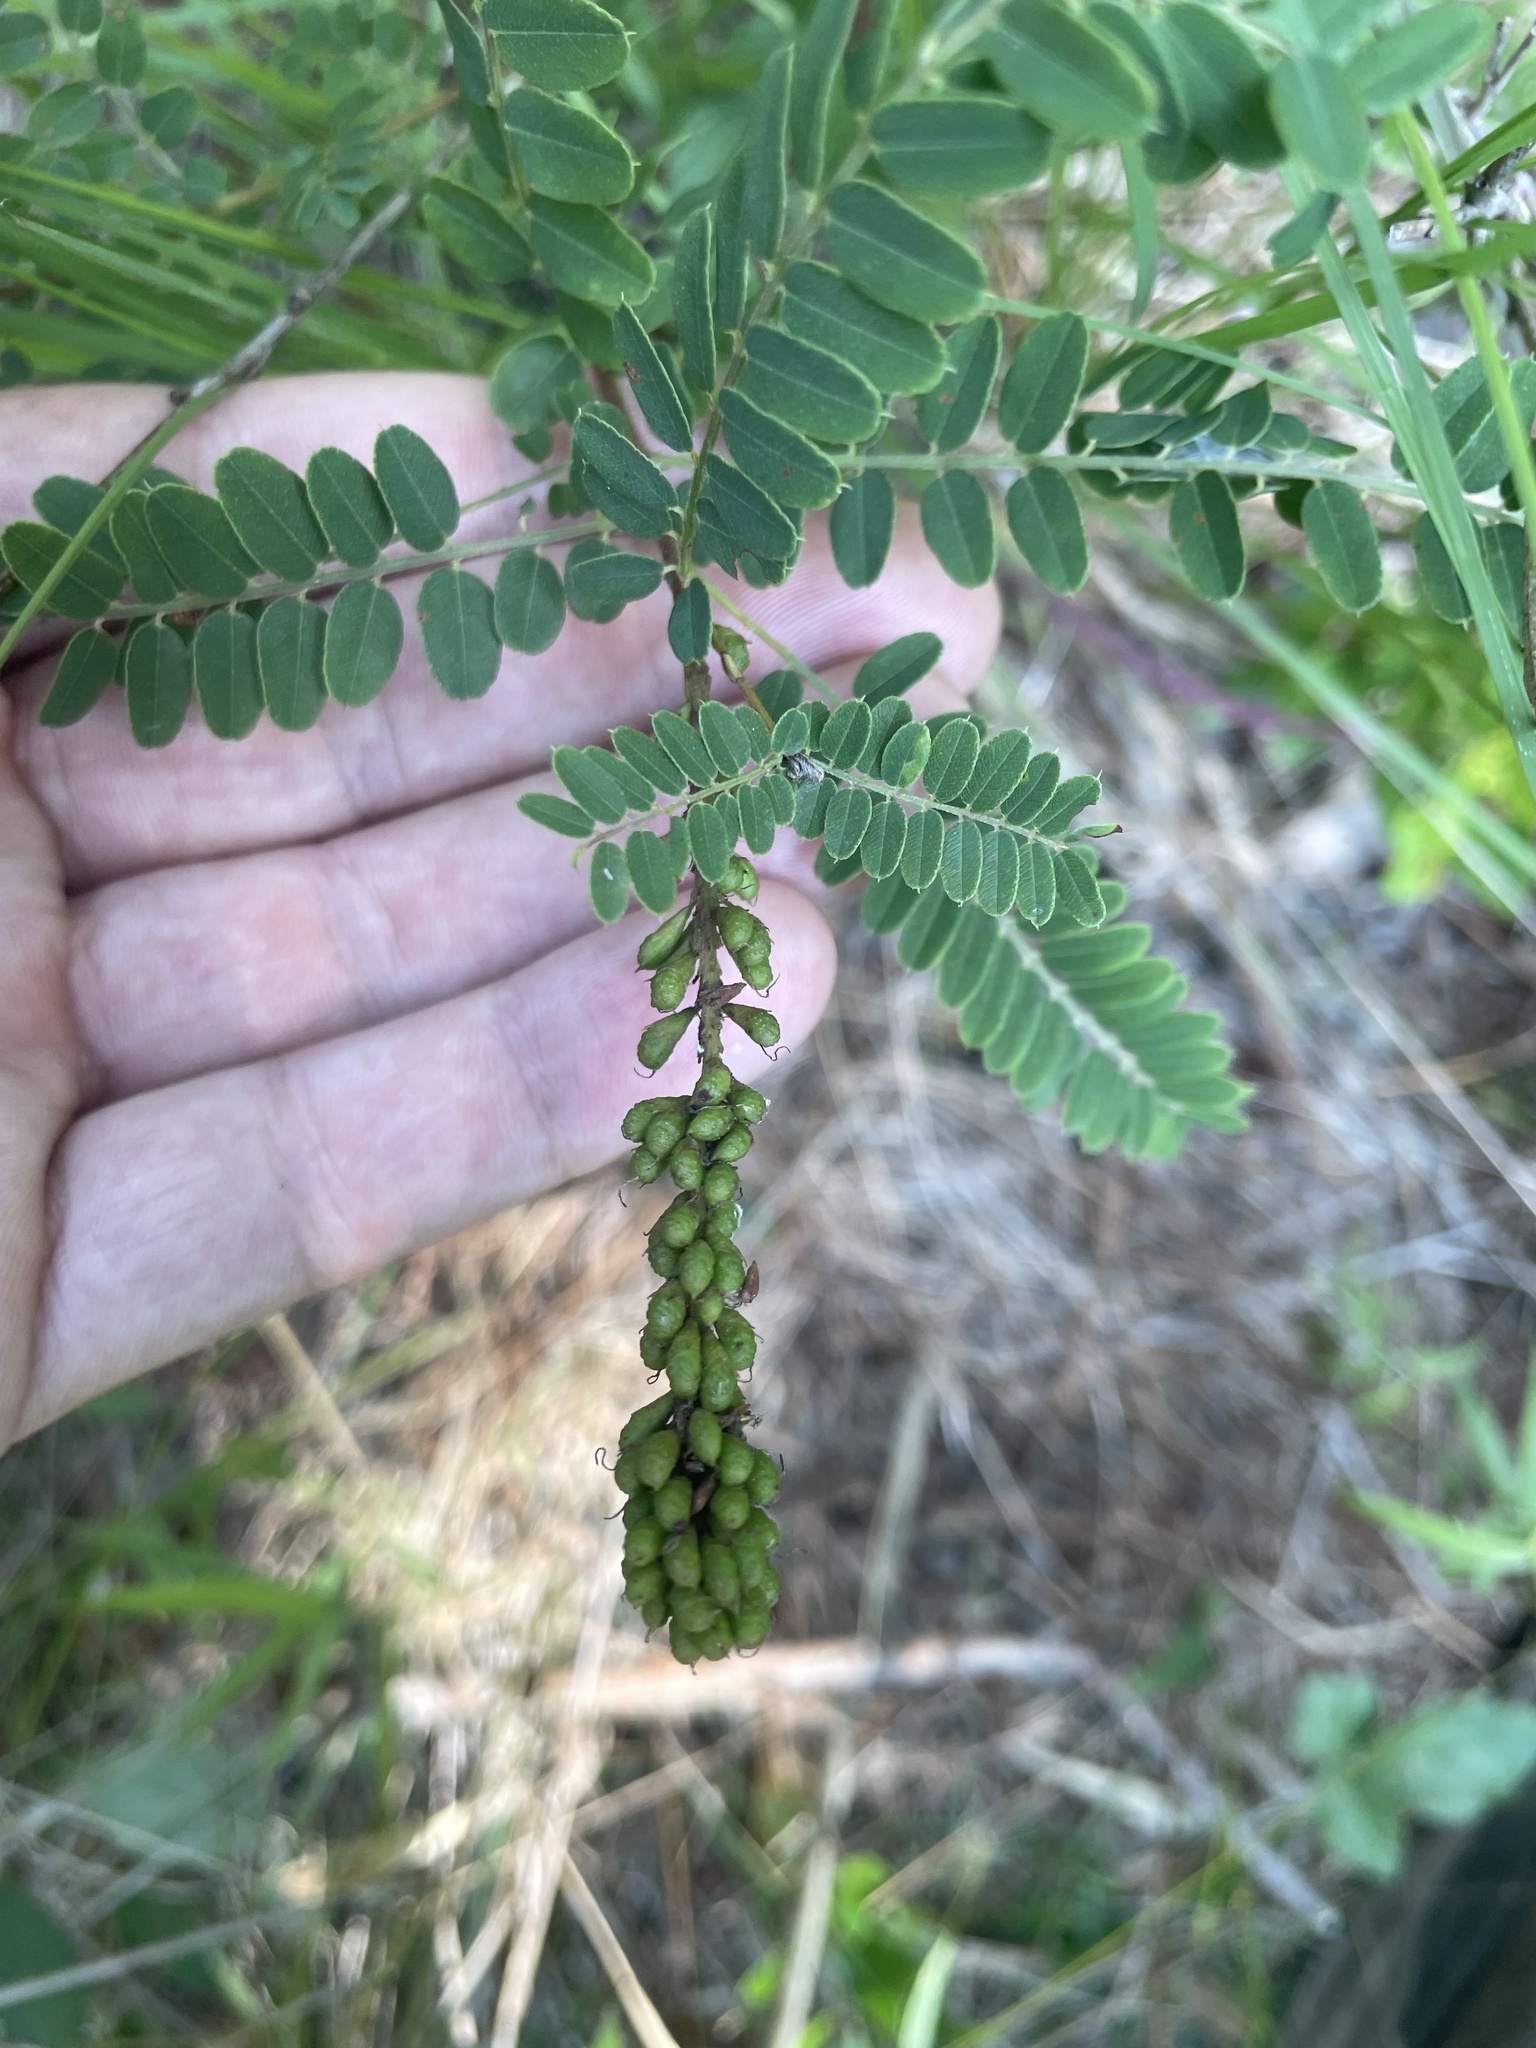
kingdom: Plantae
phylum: Tracheophyta
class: Magnoliopsida
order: Fabales
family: Fabaceae
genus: Amorpha
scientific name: Amorpha georgiana
